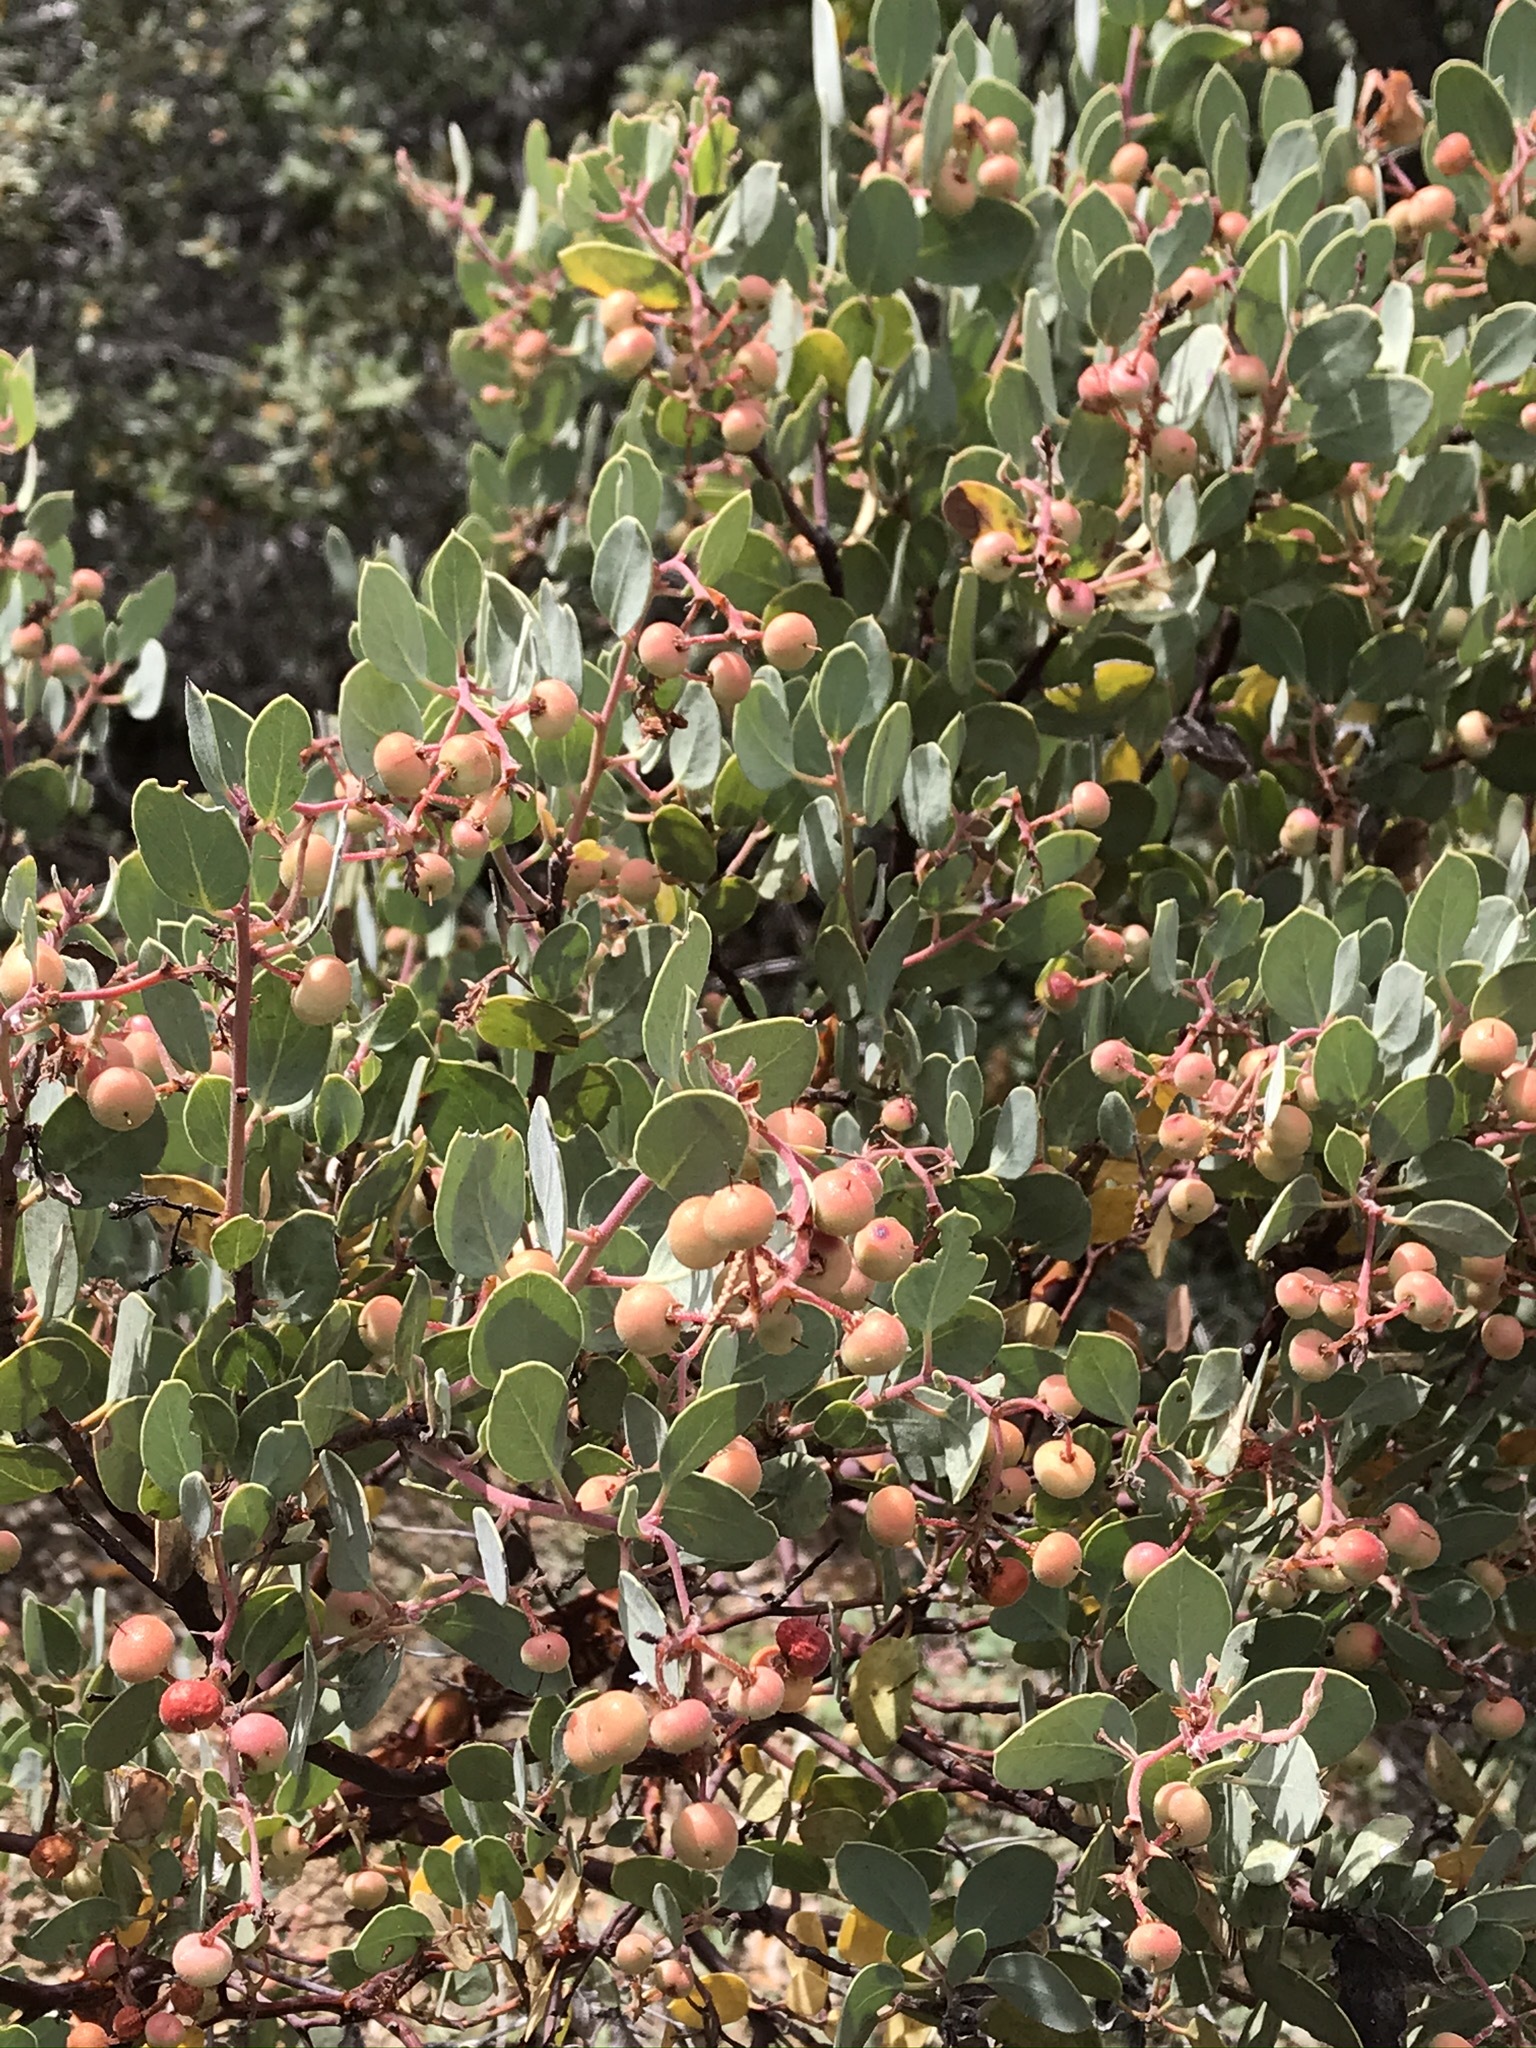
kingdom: Plantae
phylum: Tracheophyta
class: Magnoliopsida
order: Ericales
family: Ericaceae
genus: Arctostaphylos
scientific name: Arctostaphylos viscida
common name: White-leaf manzanita
